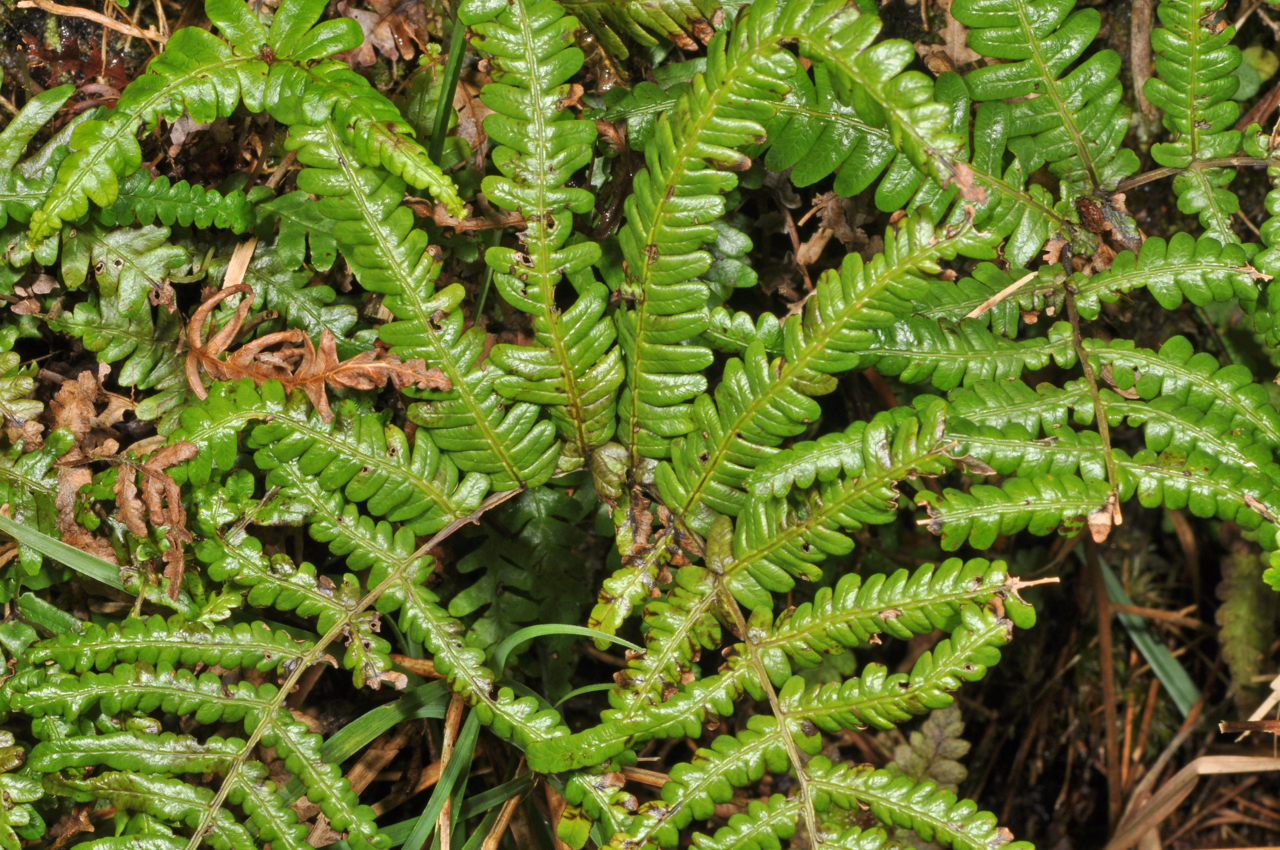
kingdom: Plantae
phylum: Tracheophyta
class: Polypodiopsida
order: Gleicheniales
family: Gleicheniaceae
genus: Diplopterygium
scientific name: Diplopterygium glaucum
